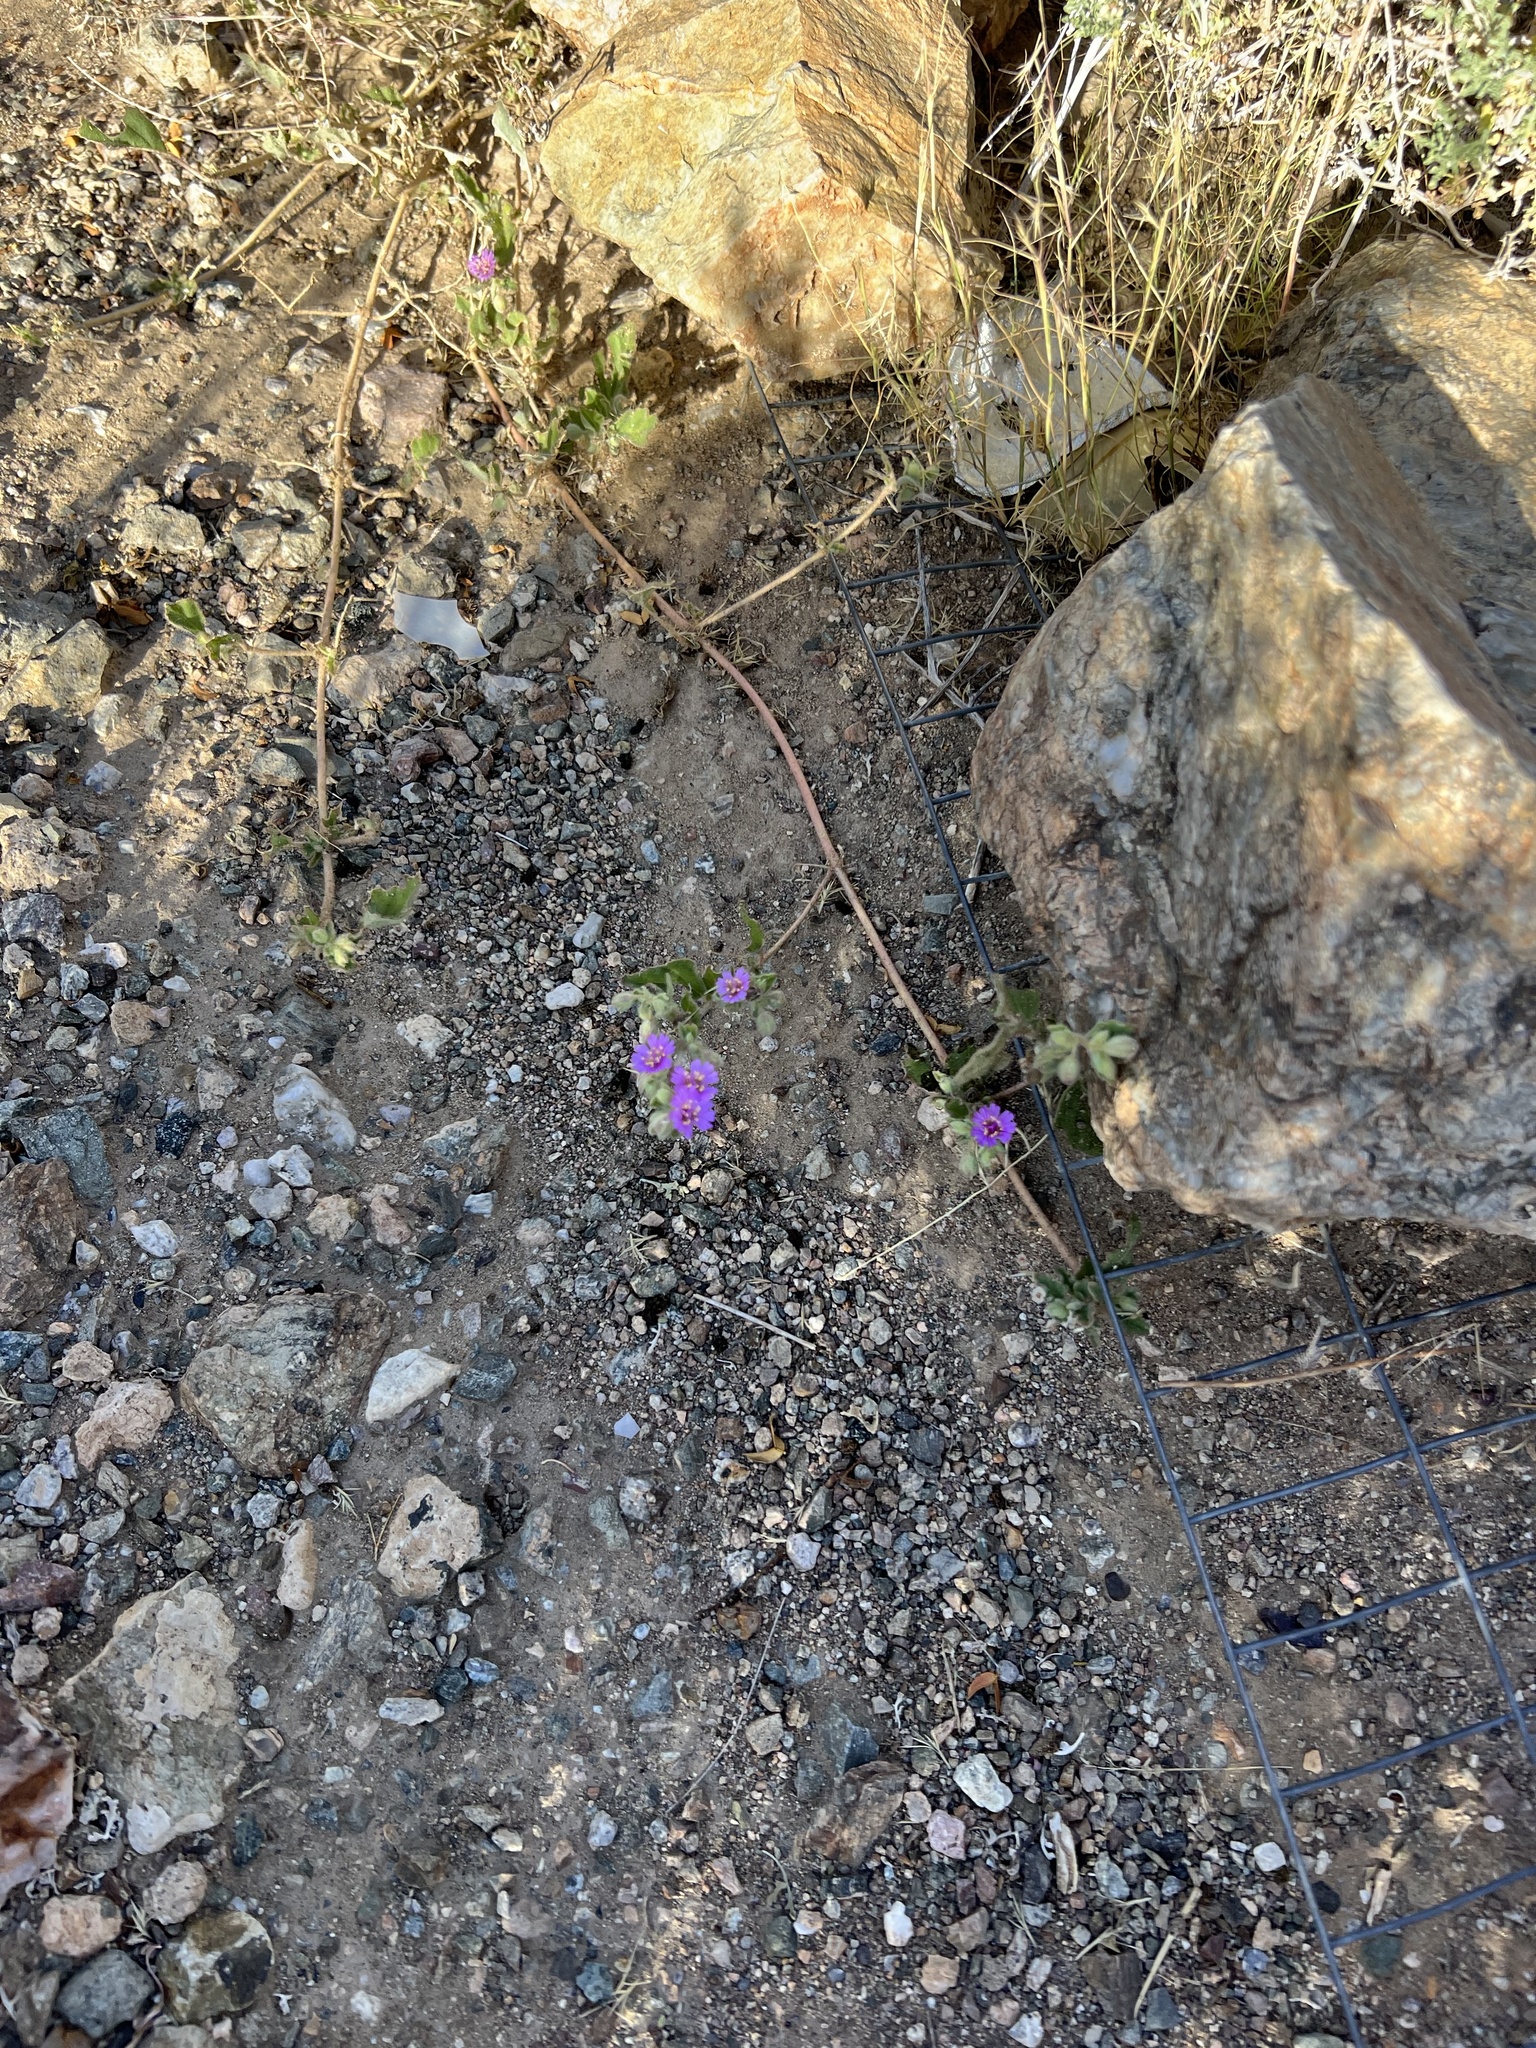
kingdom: Plantae
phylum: Tracheophyta
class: Magnoliopsida
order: Caryophyllales
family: Nyctaginaceae
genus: Allionia
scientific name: Allionia incarnata
